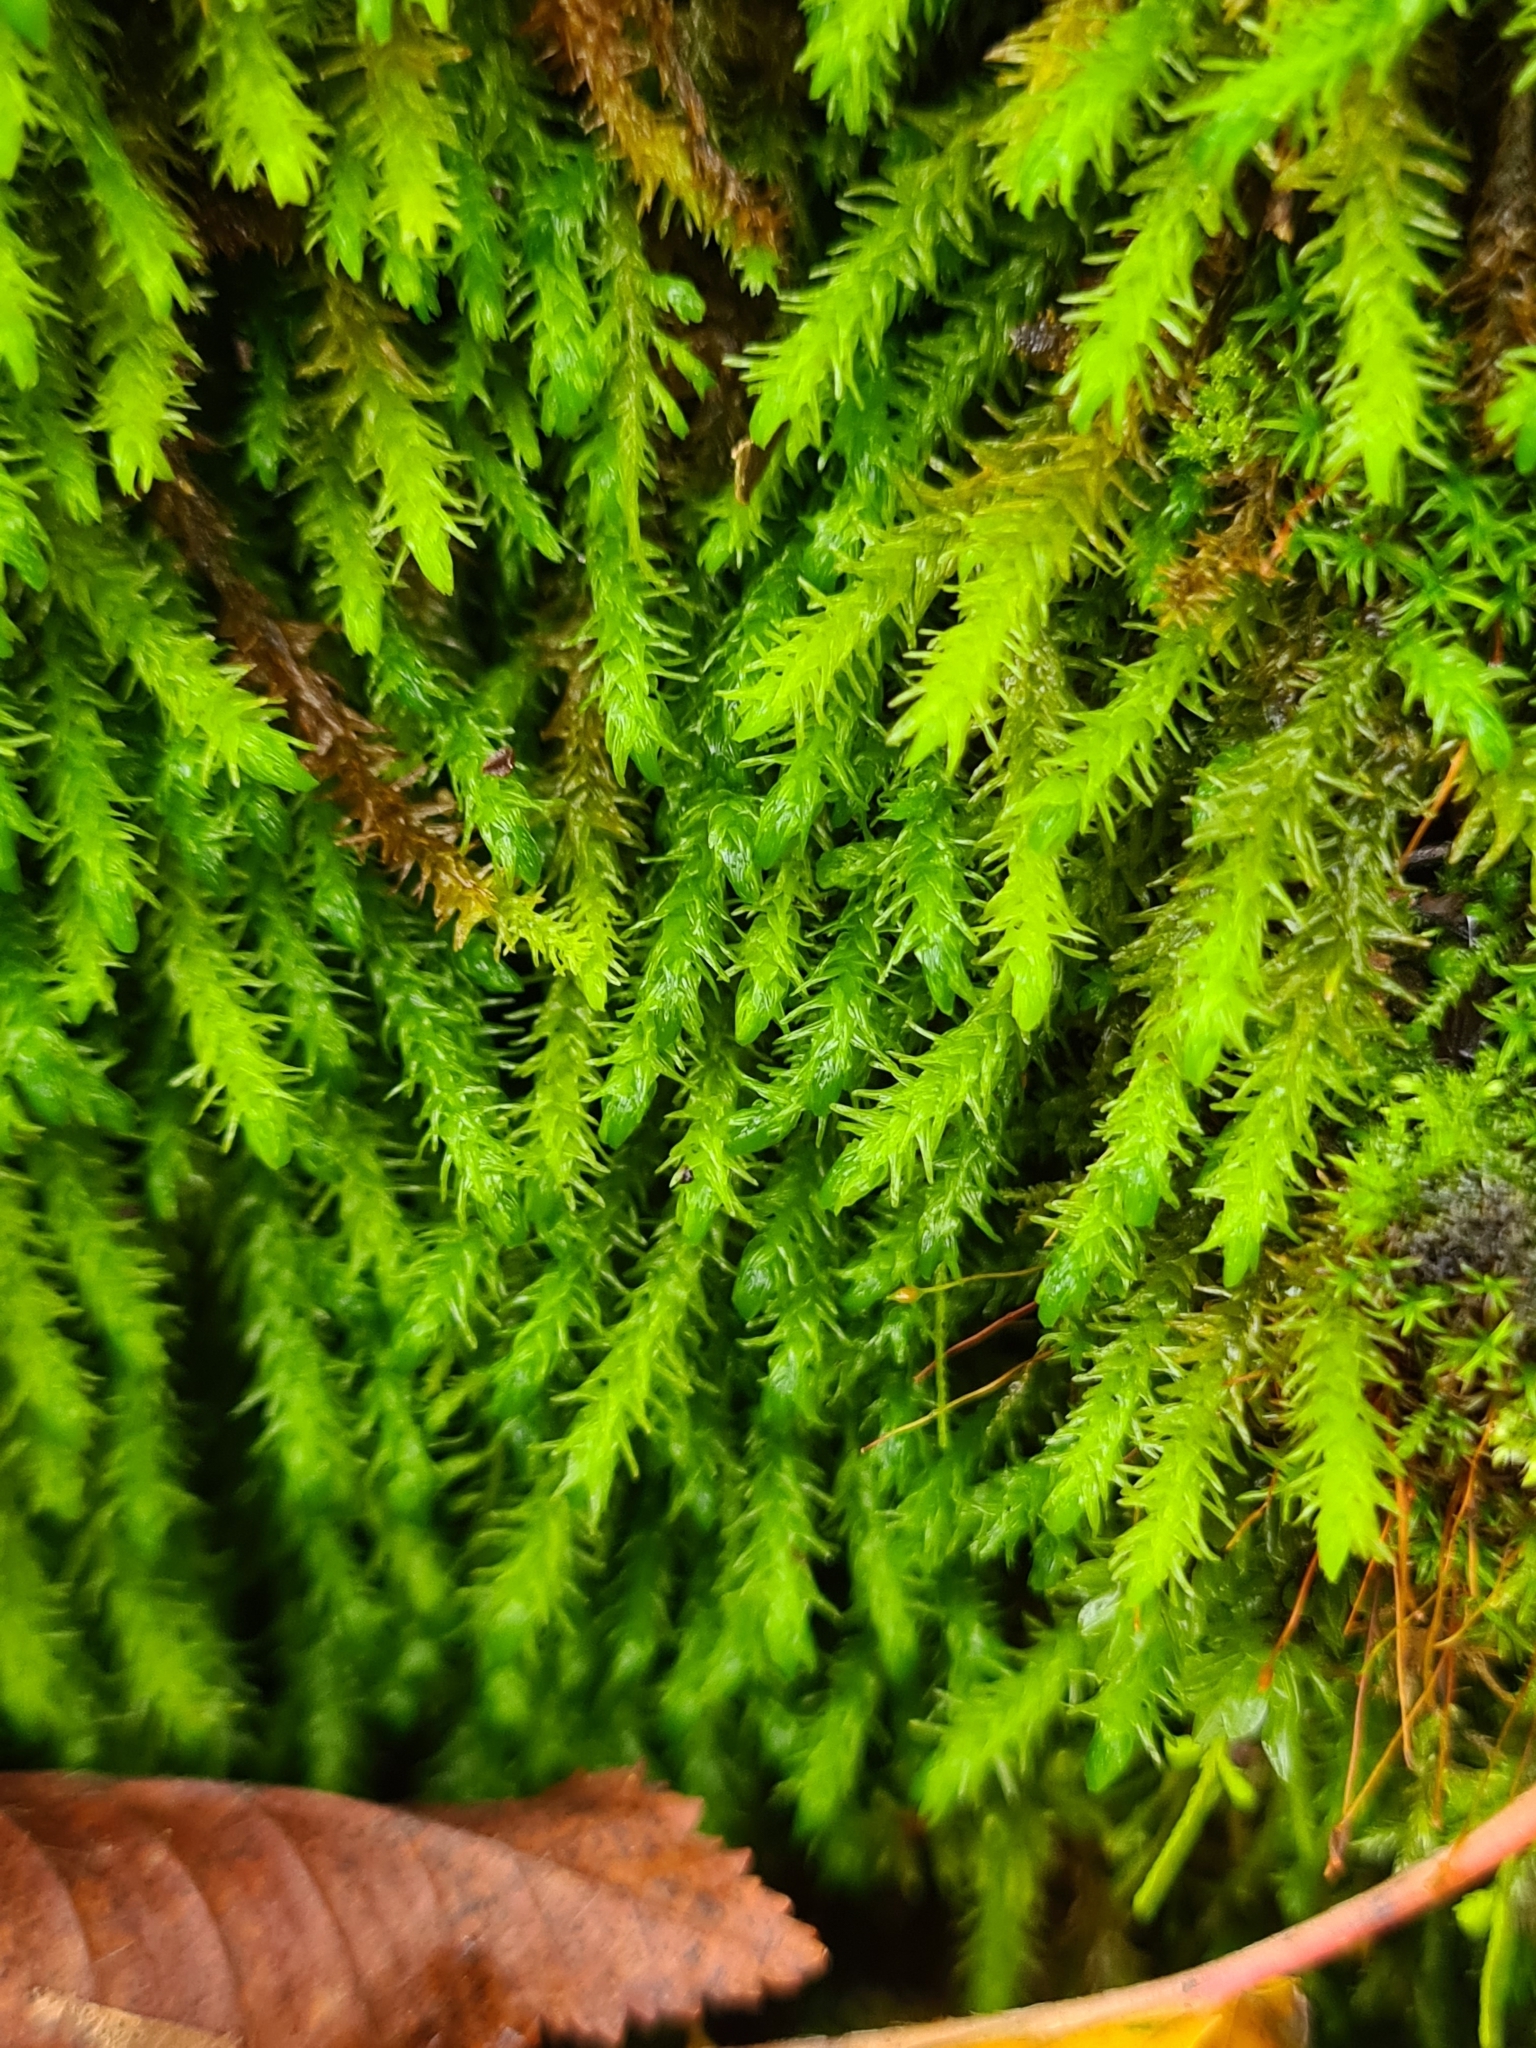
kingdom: Plantae
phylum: Bryophyta
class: Bryopsida
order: Hypnales
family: Anomodontaceae
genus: Anomodon
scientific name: Anomodon viticulosus
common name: Tall anomodon
